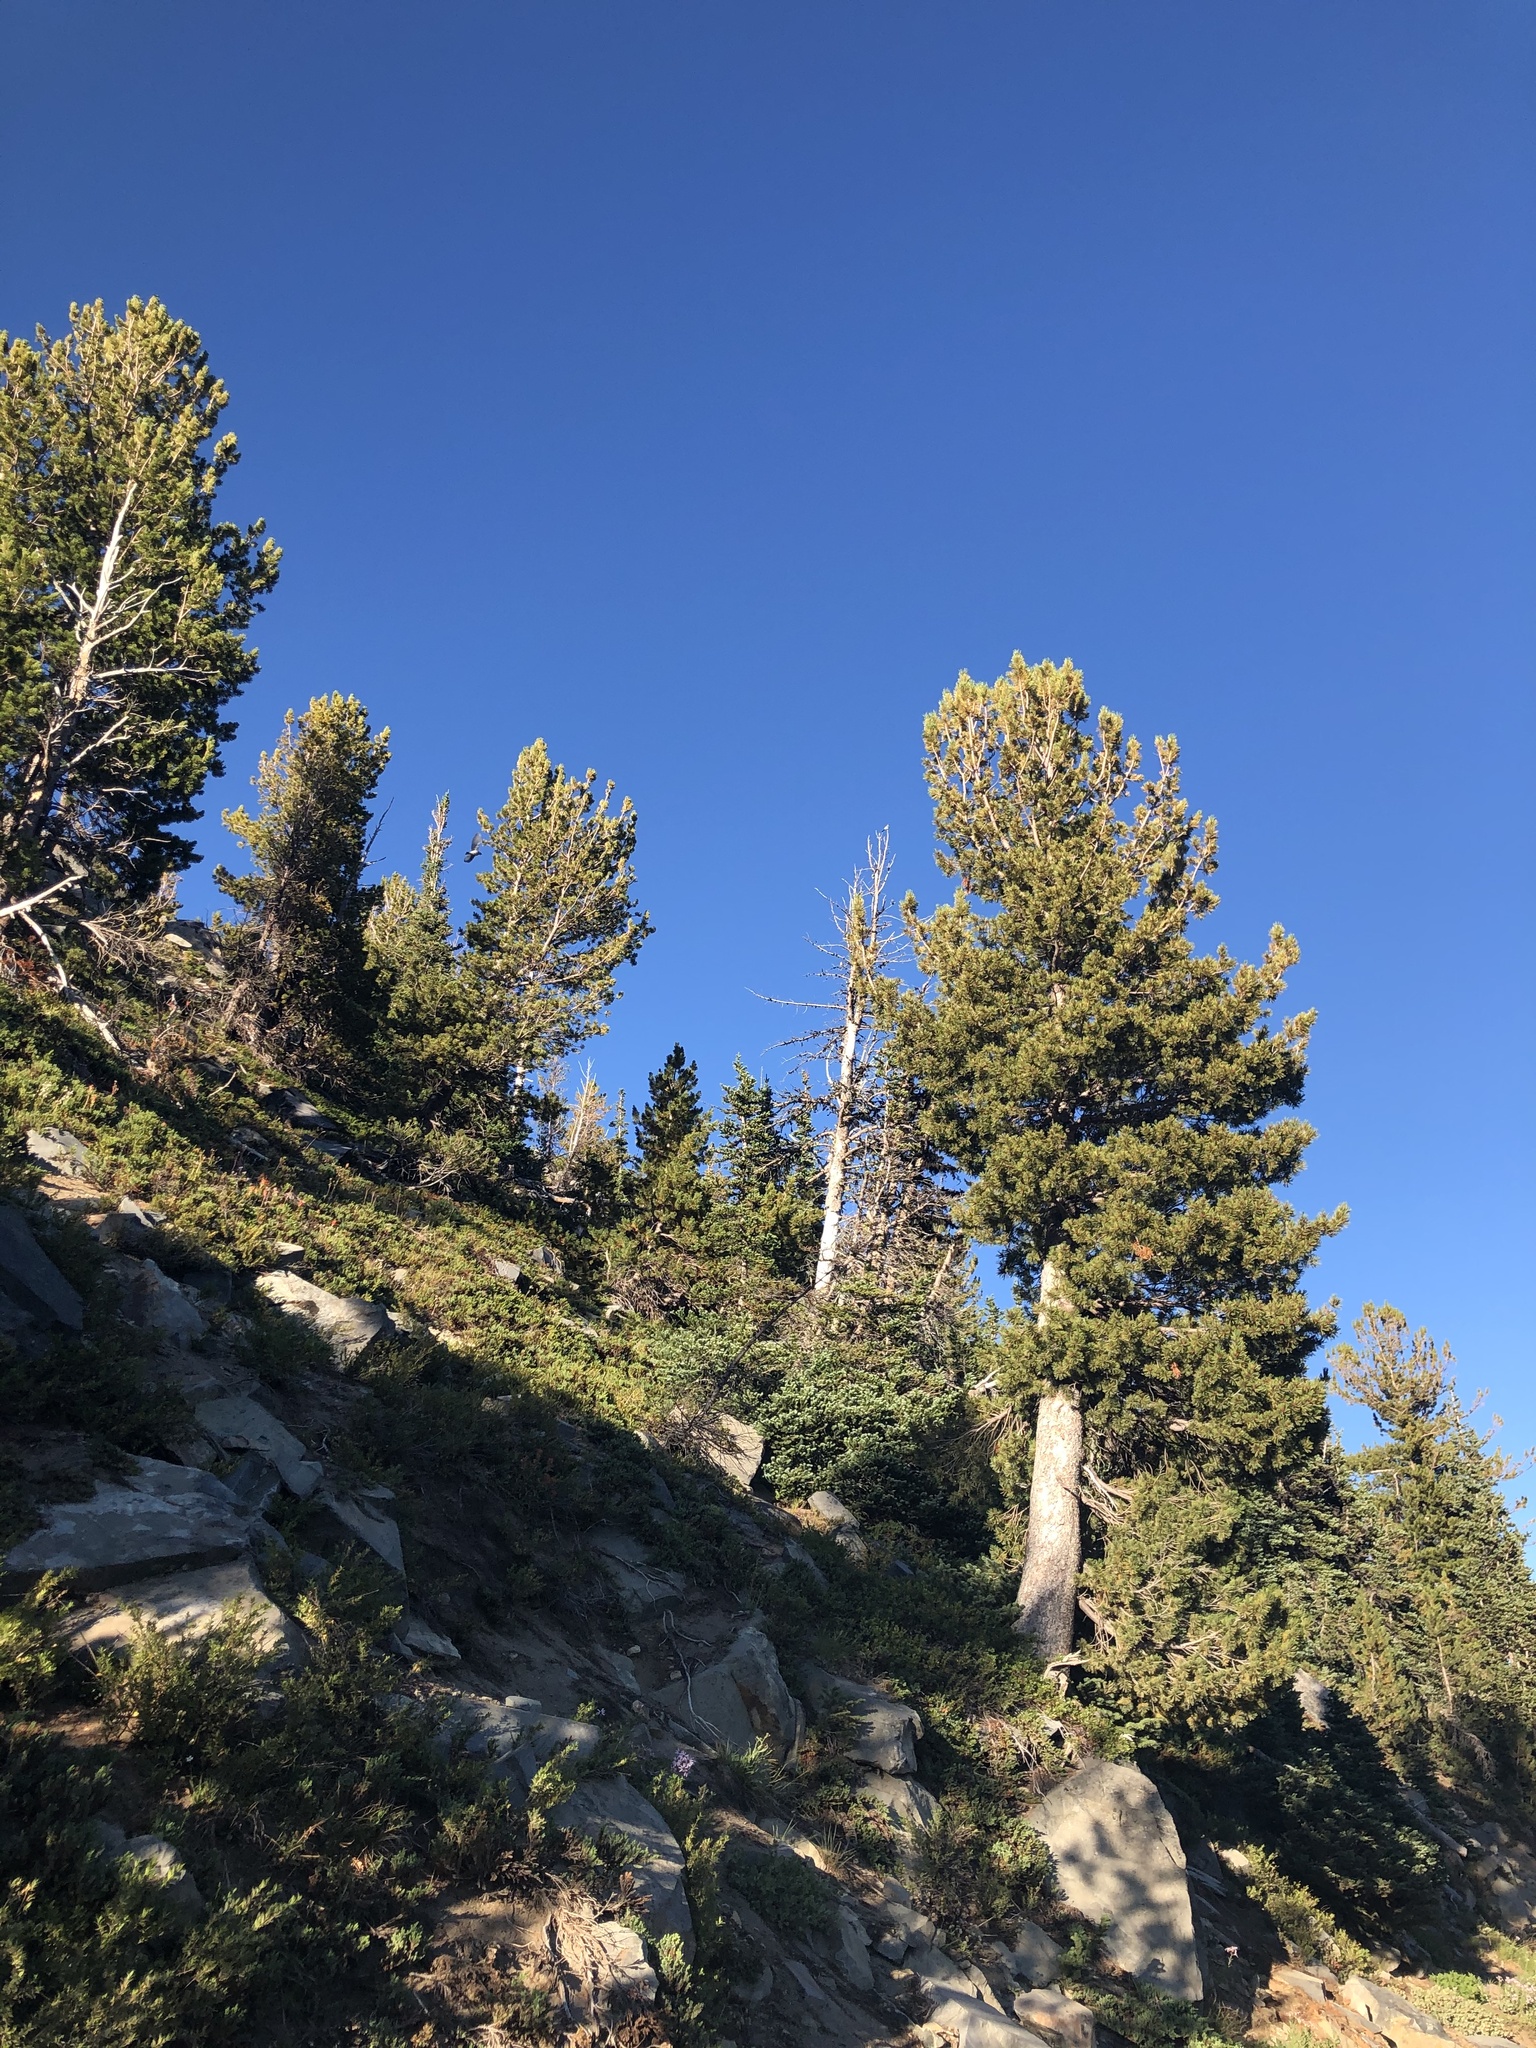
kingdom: Plantae
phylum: Tracheophyta
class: Pinopsida
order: Pinales
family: Pinaceae
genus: Pinus
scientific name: Pinus albicaulis
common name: Whitebark pine
